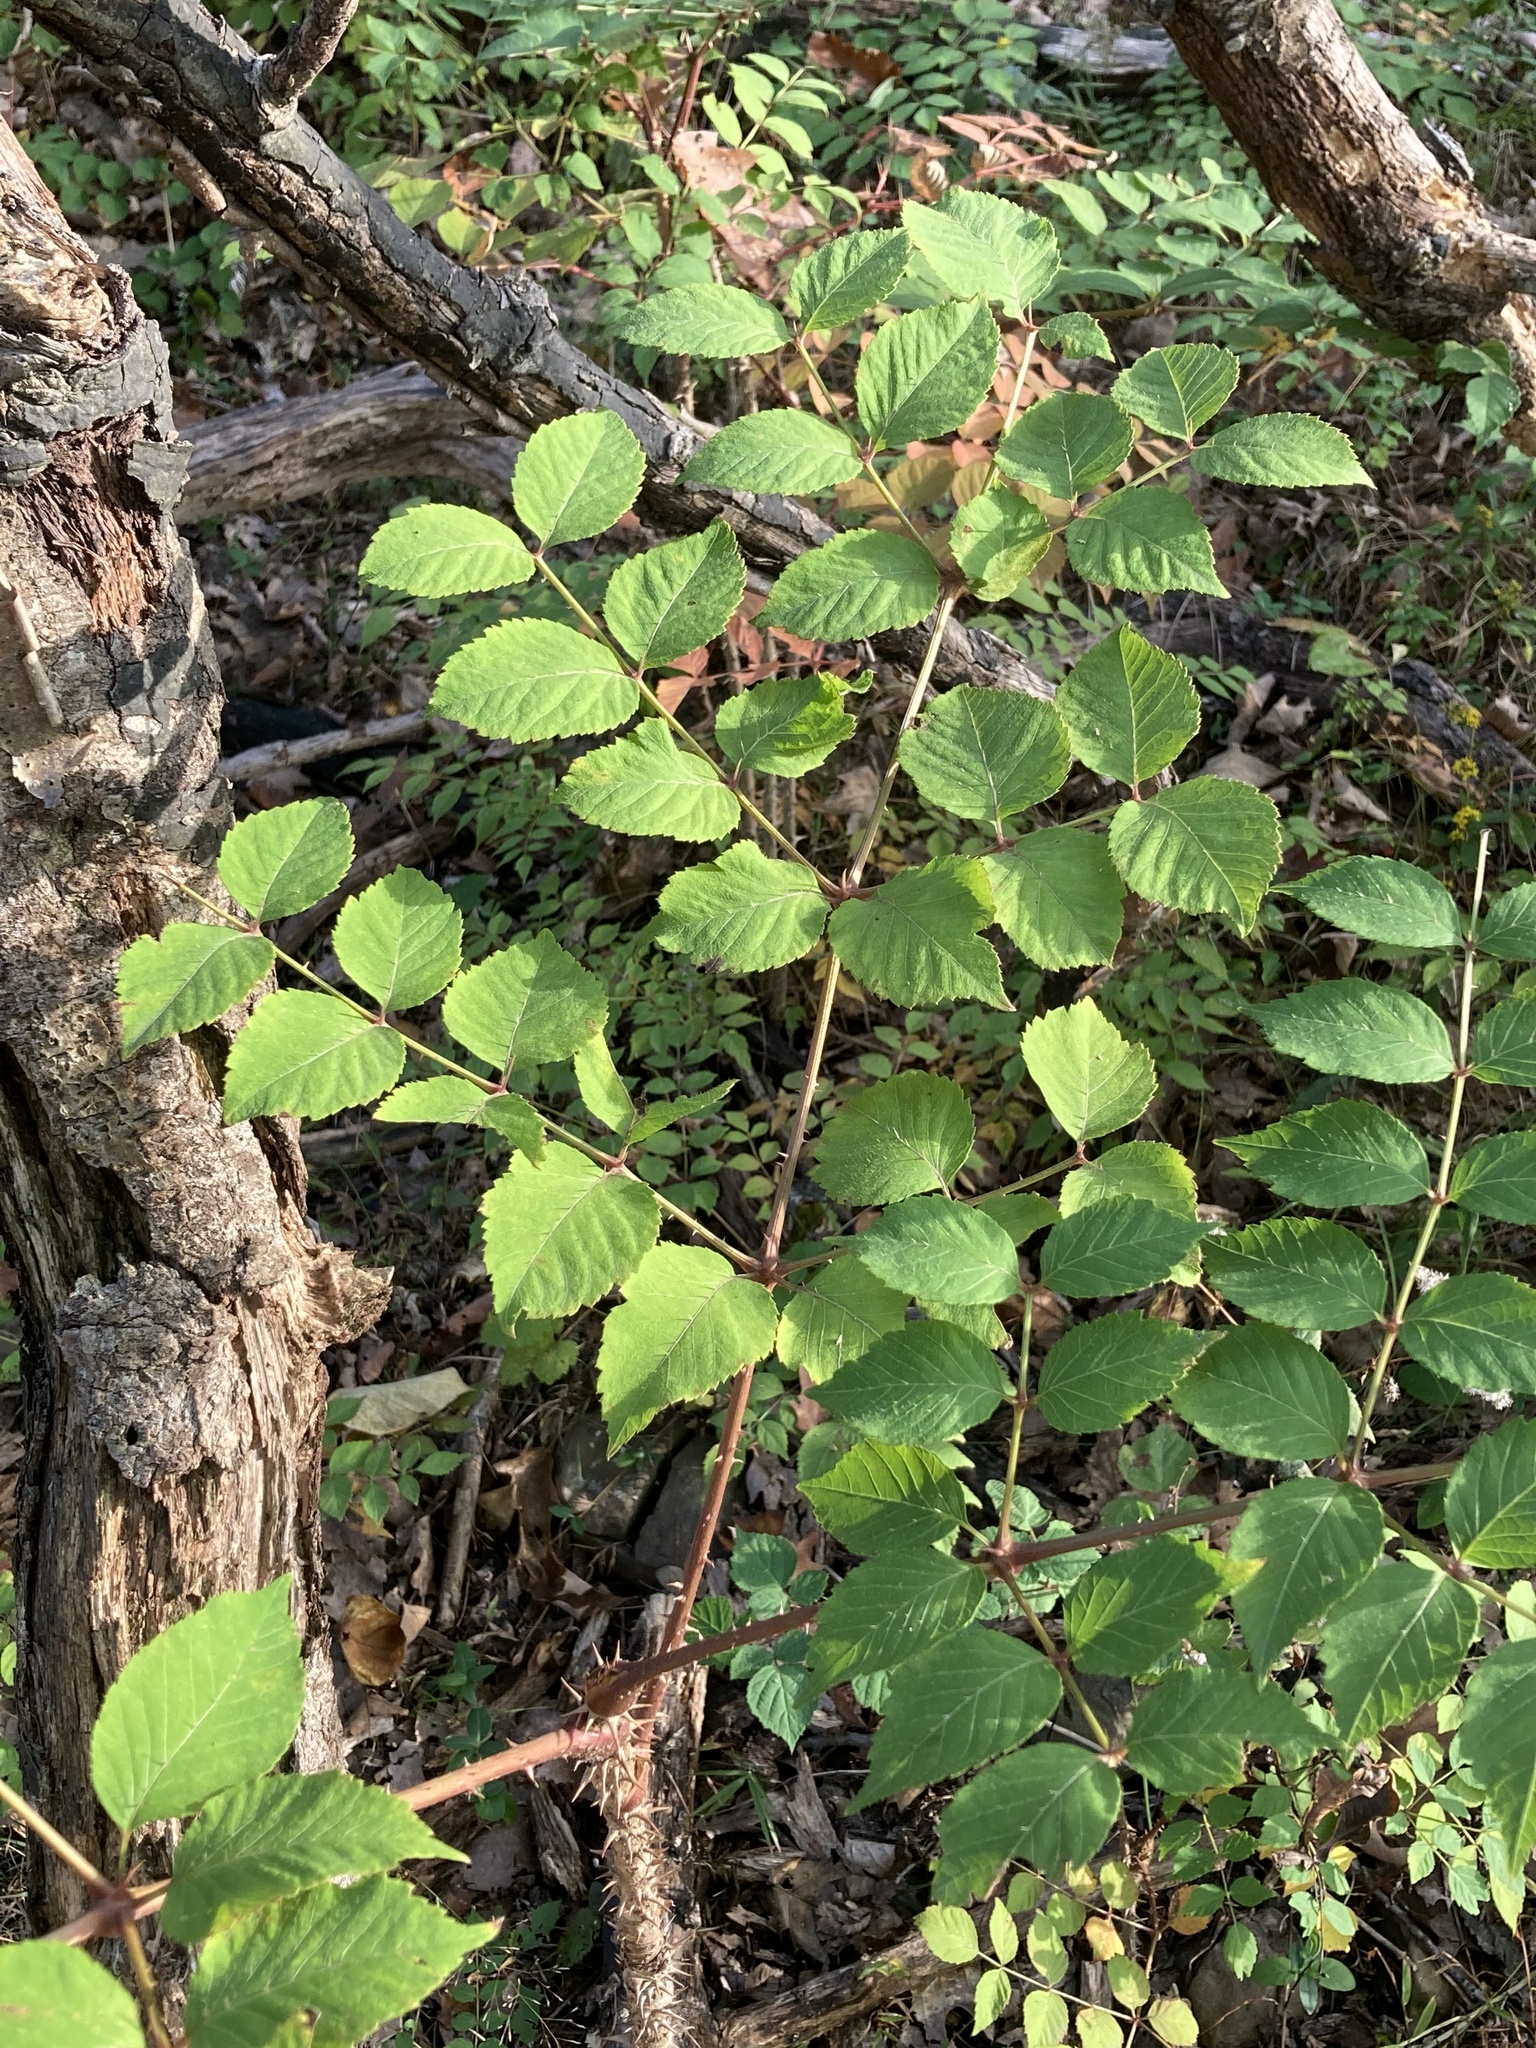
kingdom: Plantae
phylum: Tracheophyta
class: Magnoliopsida
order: Apiales
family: Araliaceae
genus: Aralia
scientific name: Aralia elata
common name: Japanese angelica-tree
